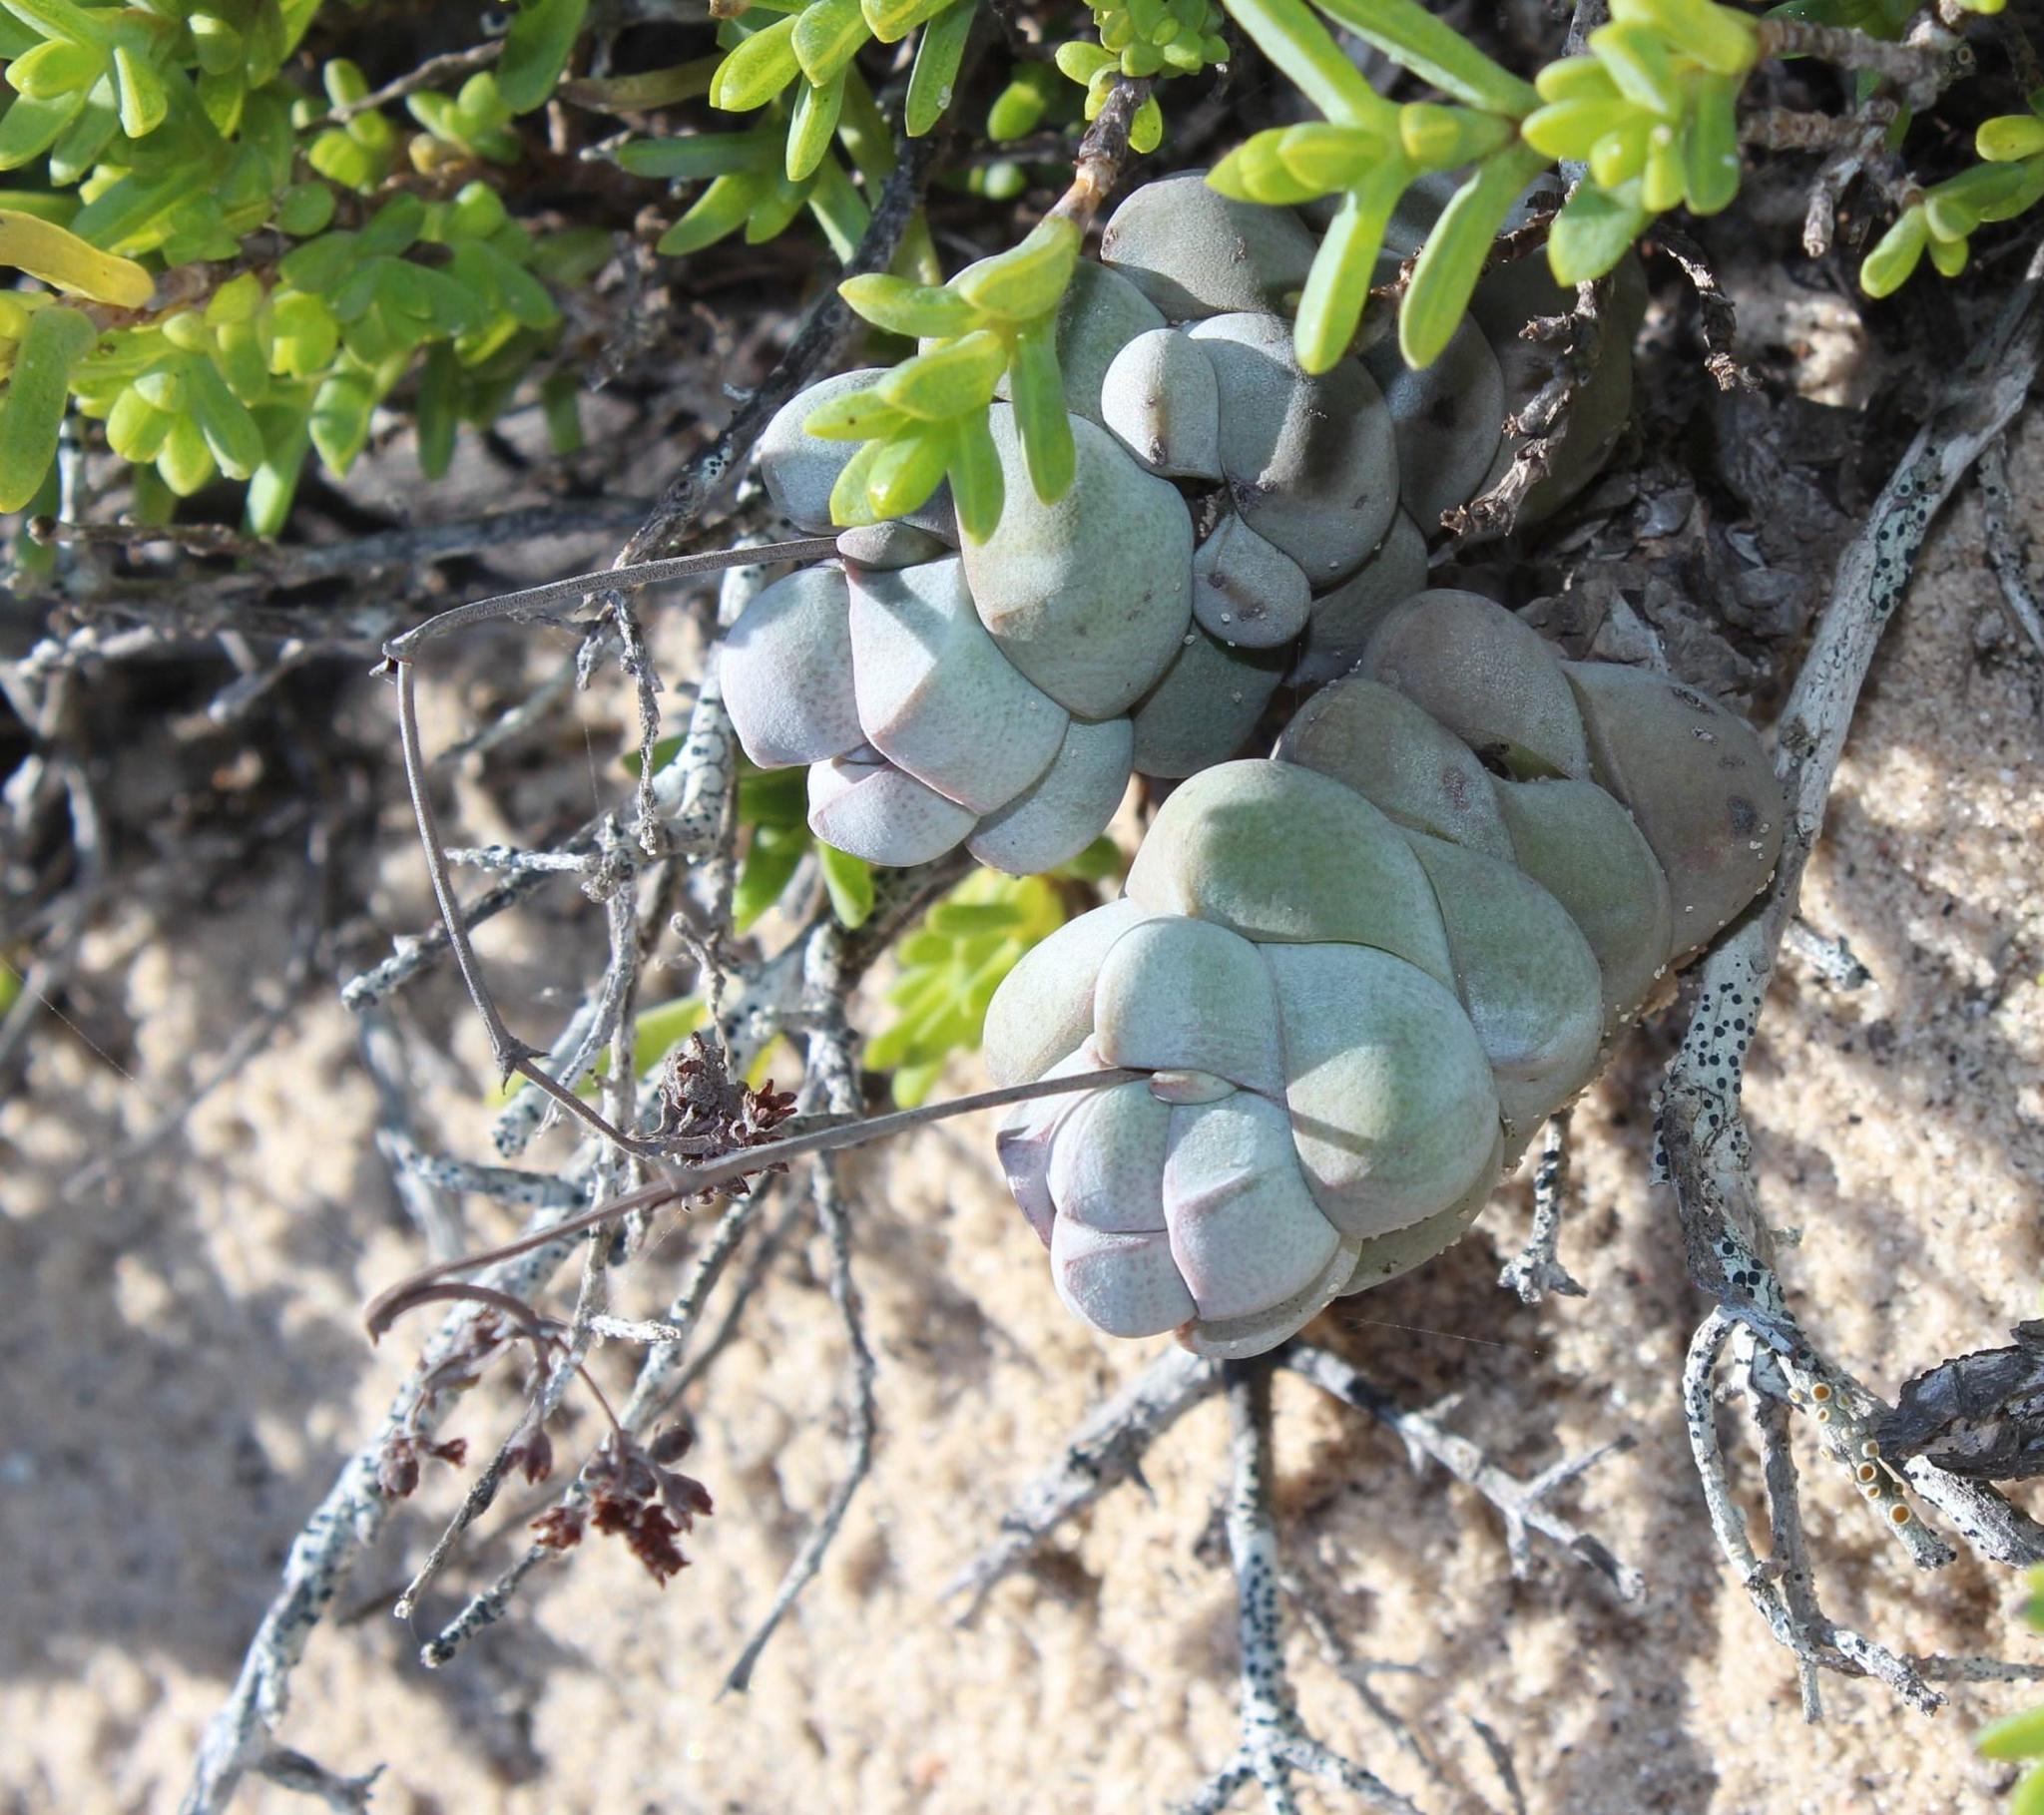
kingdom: Plantae
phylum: Tracheophyta
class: Magnoliopsida
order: Saxifragales
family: Crassulaceae
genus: Crassula
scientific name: Crassula plegmatoides
